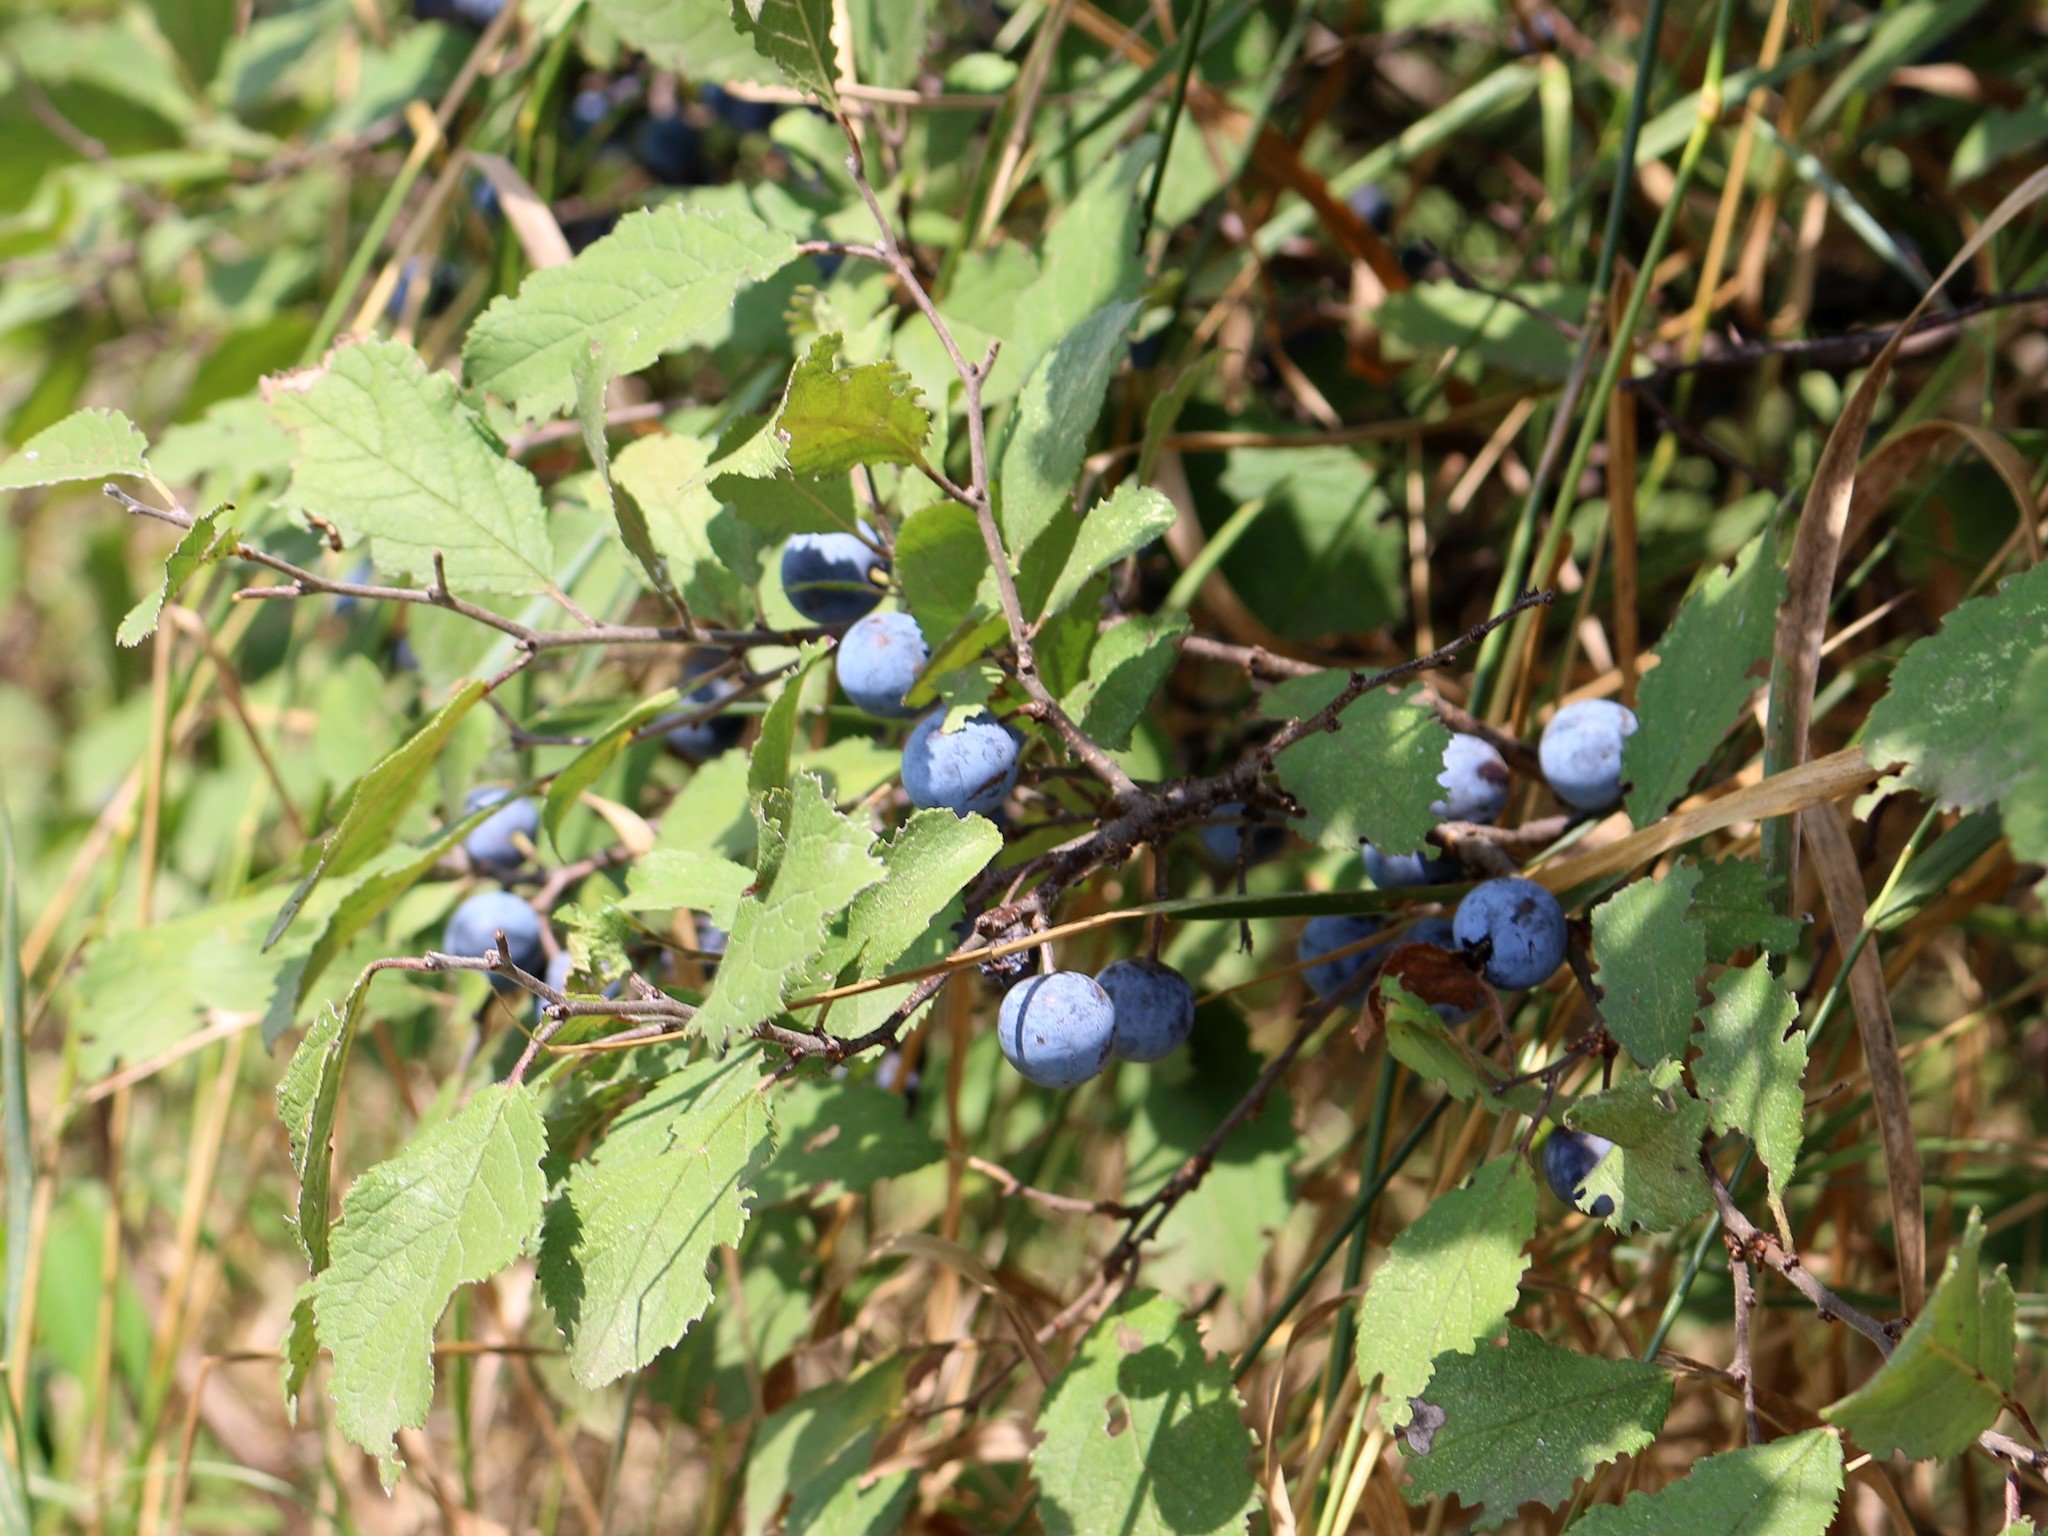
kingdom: Plantae
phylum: Tracheophyta
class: Magnoliopsida
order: Rosales
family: Rosaceae
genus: Prunus
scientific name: Prunus spinosa
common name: Blackthorn
